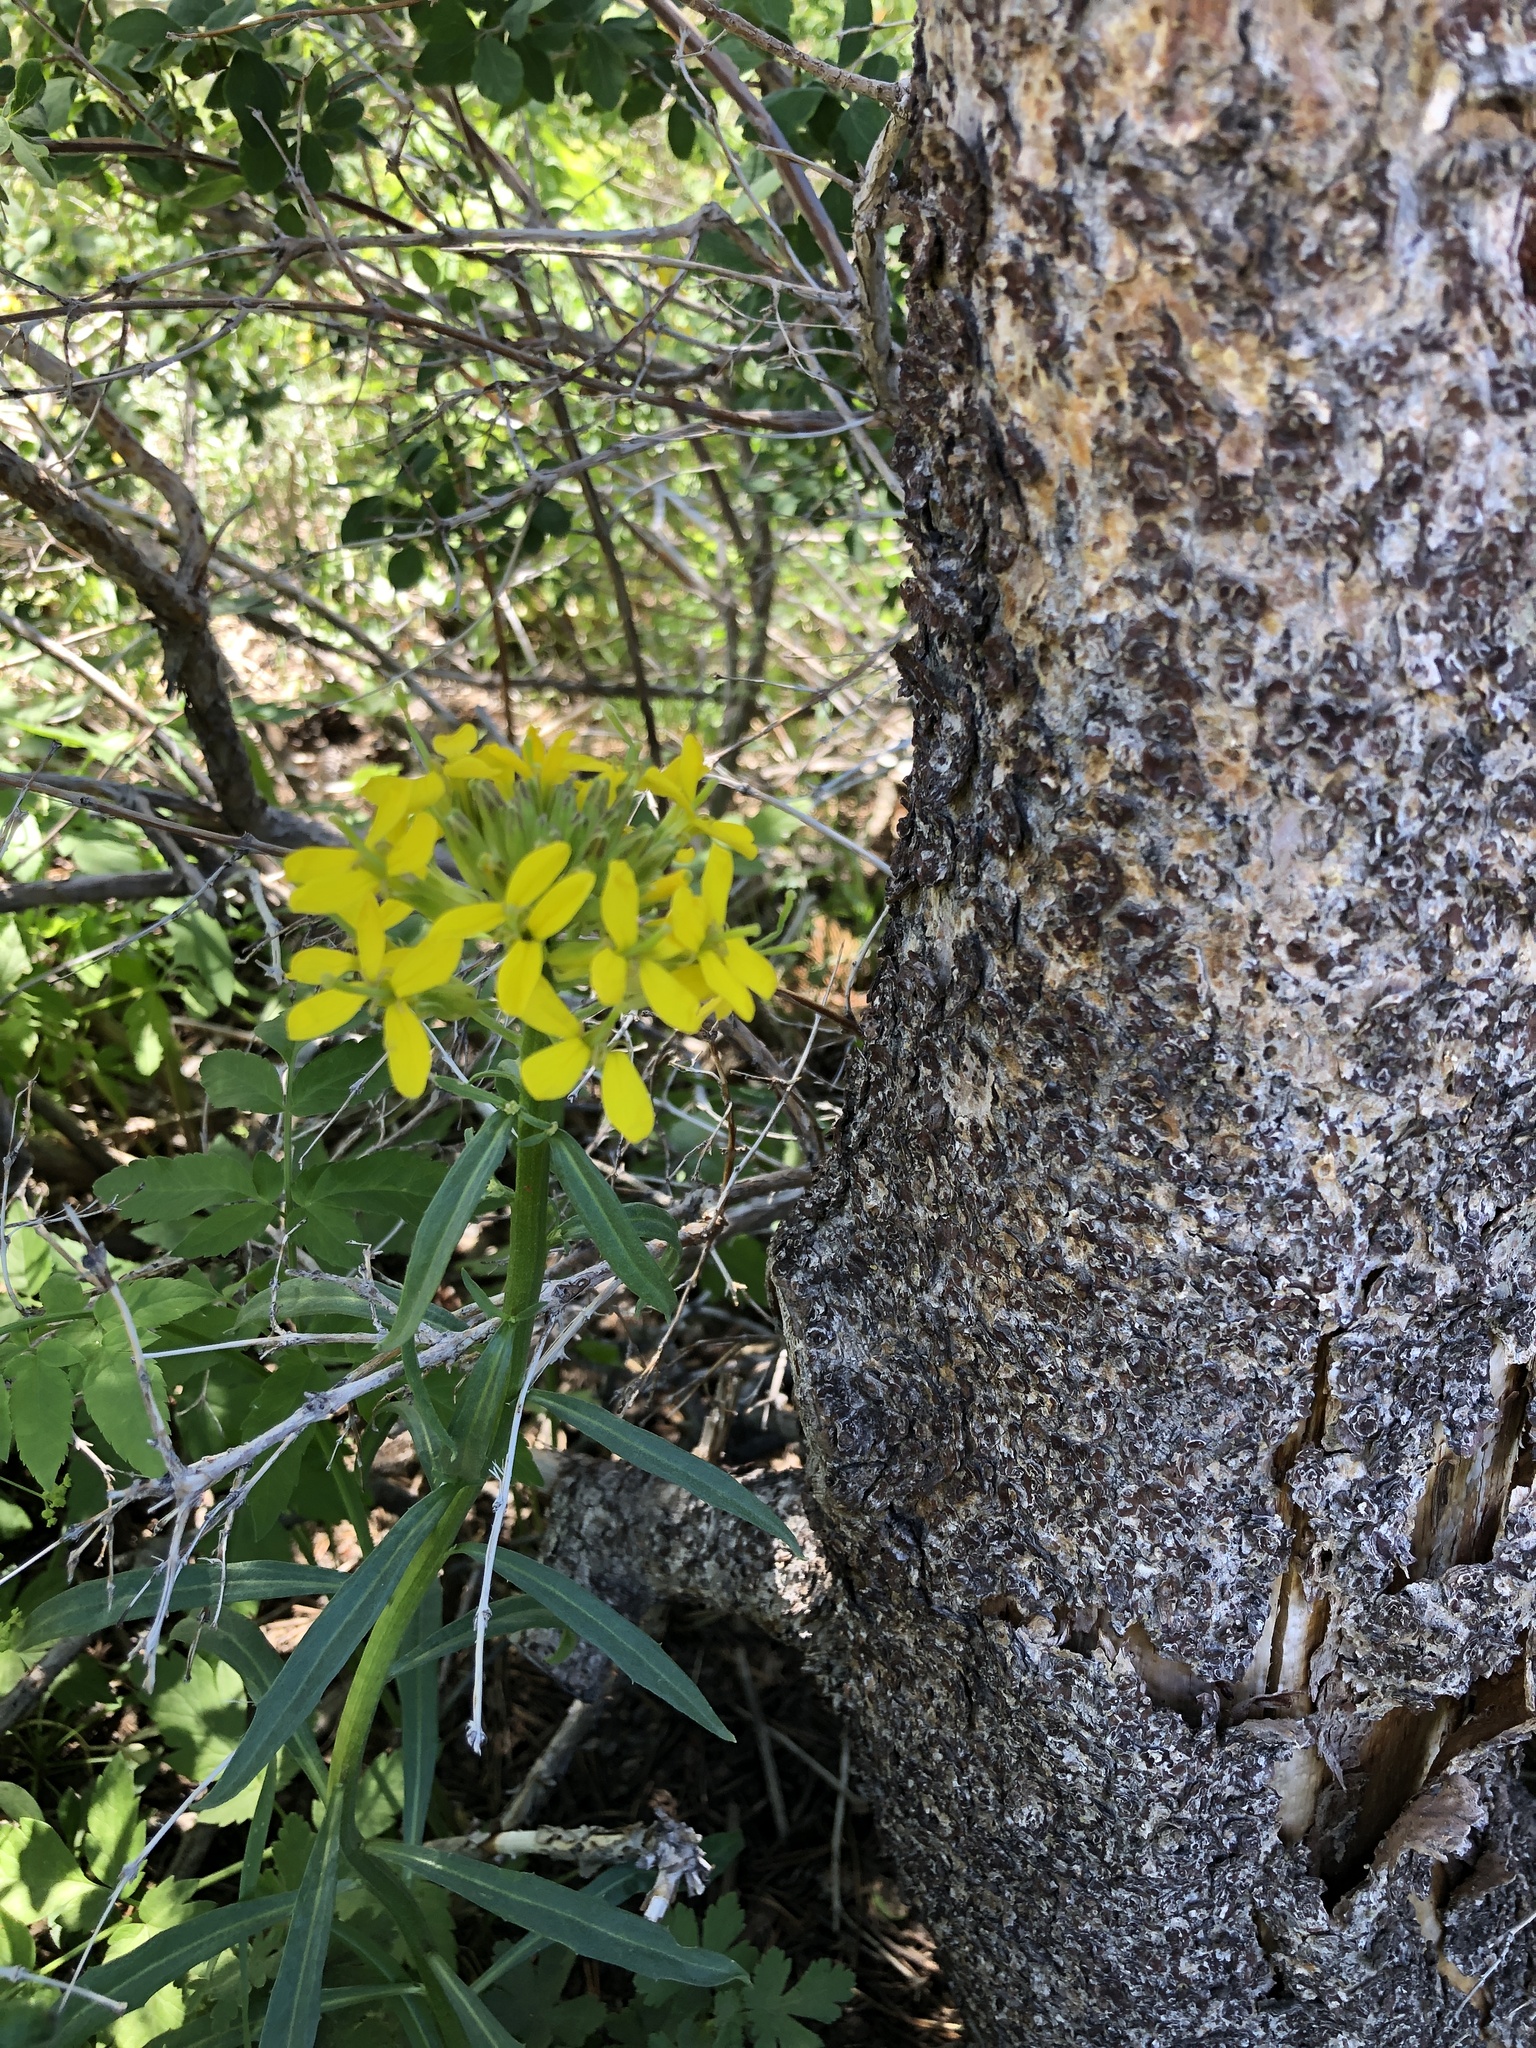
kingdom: Plantae
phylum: Tracheophyta
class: Magnoliopsida
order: Brassicales
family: Brassicaceae
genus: Erysimum
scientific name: Erysimum capitatum
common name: Western wallflower
